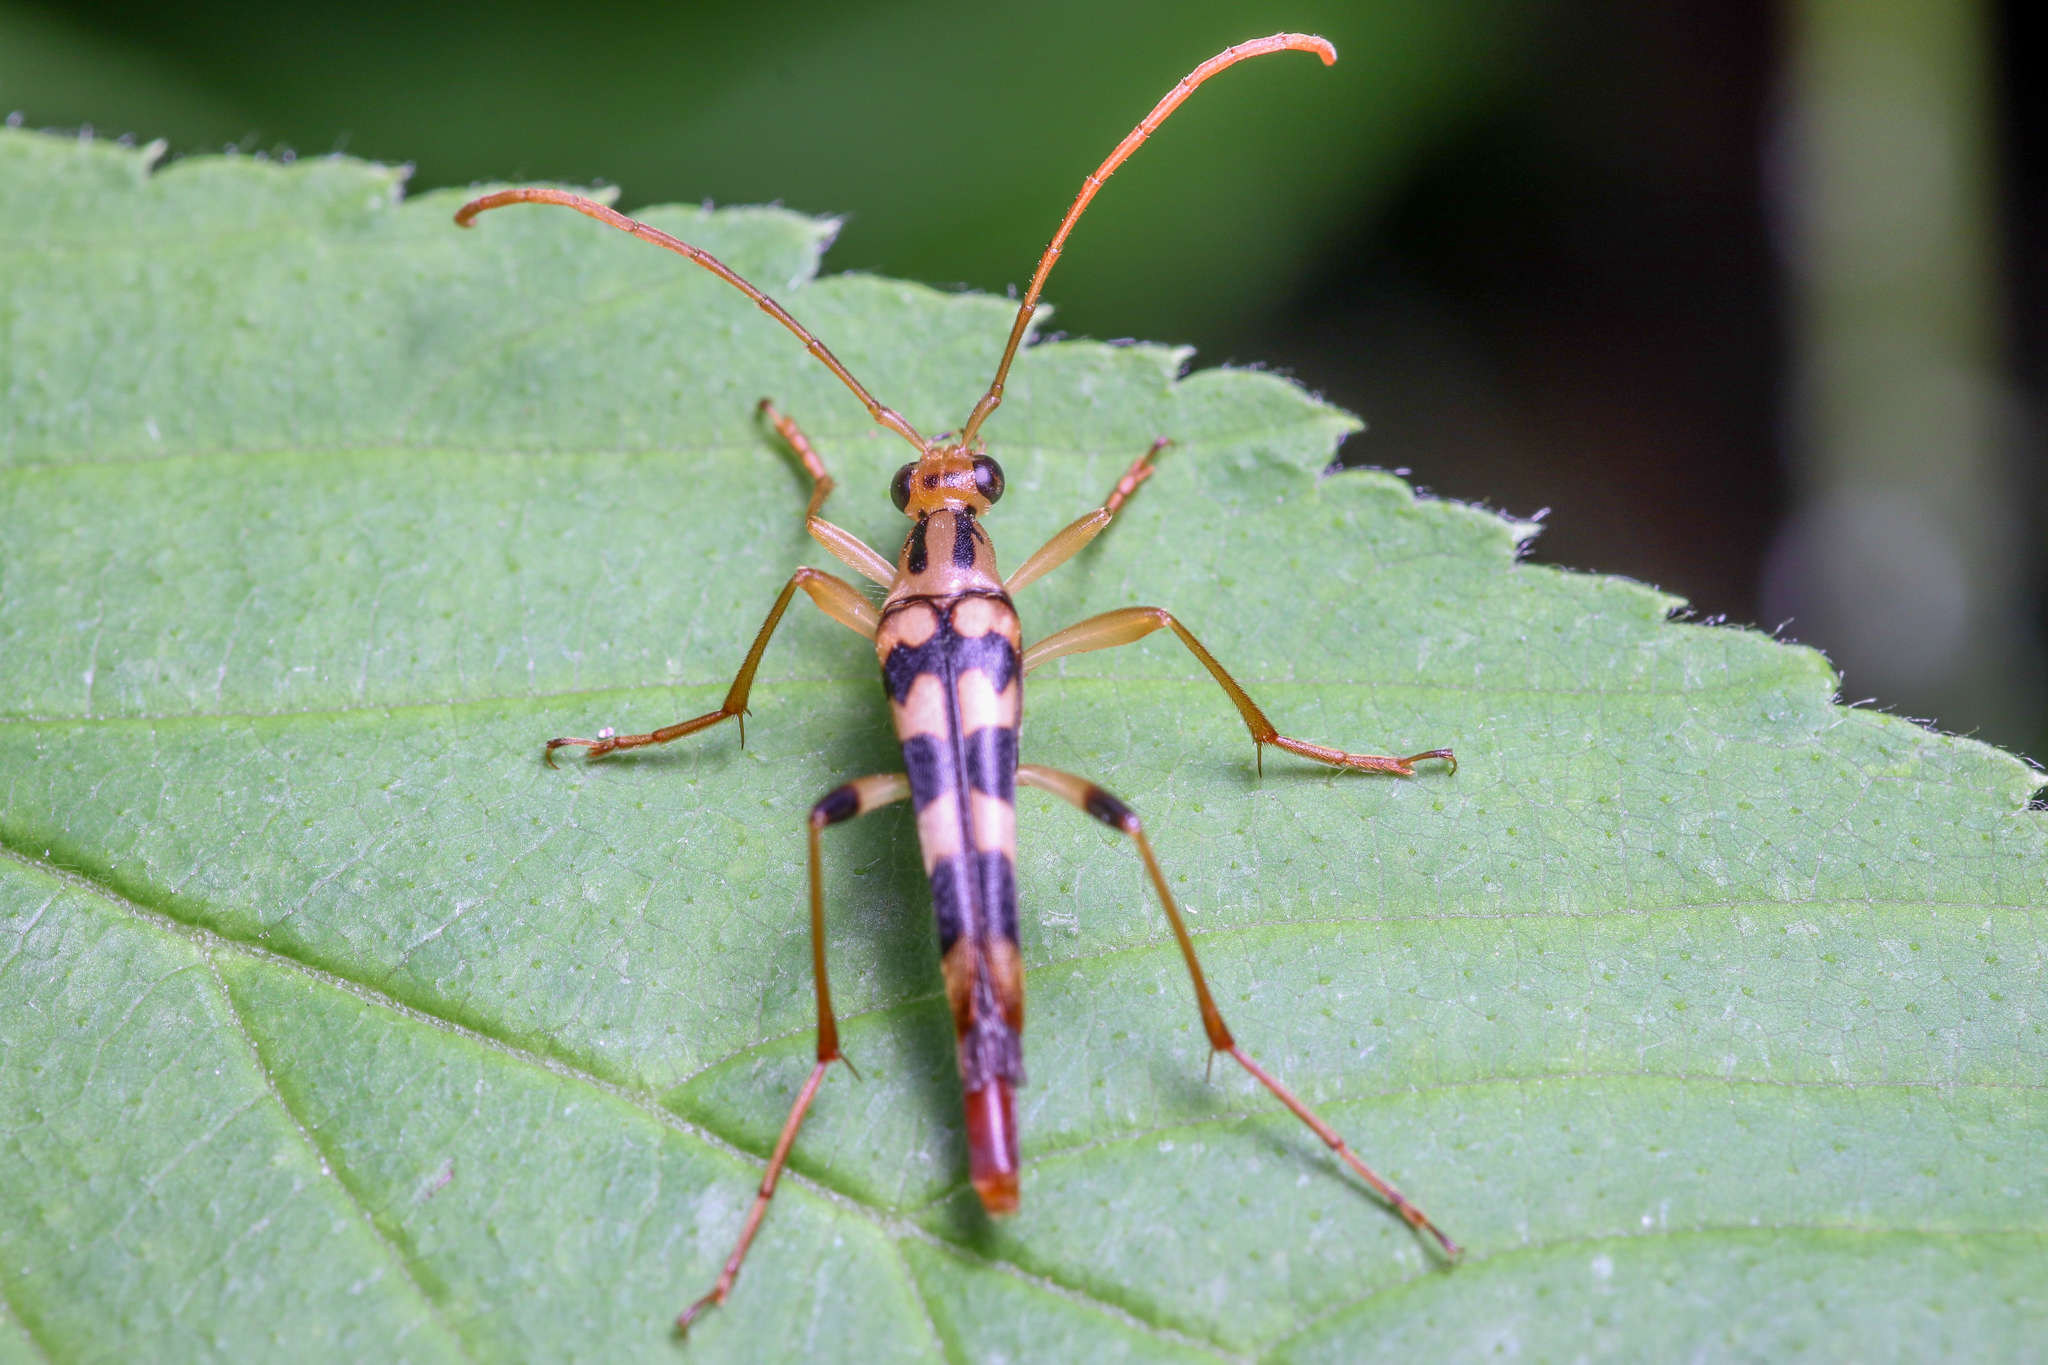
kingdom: Animalia
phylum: Arthropoda
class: Insecta
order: Coleoptera
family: Cerambycidae
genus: Strangalia
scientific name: Strangalia luteicornis
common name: Yellow-horned flower longhorn beetle
